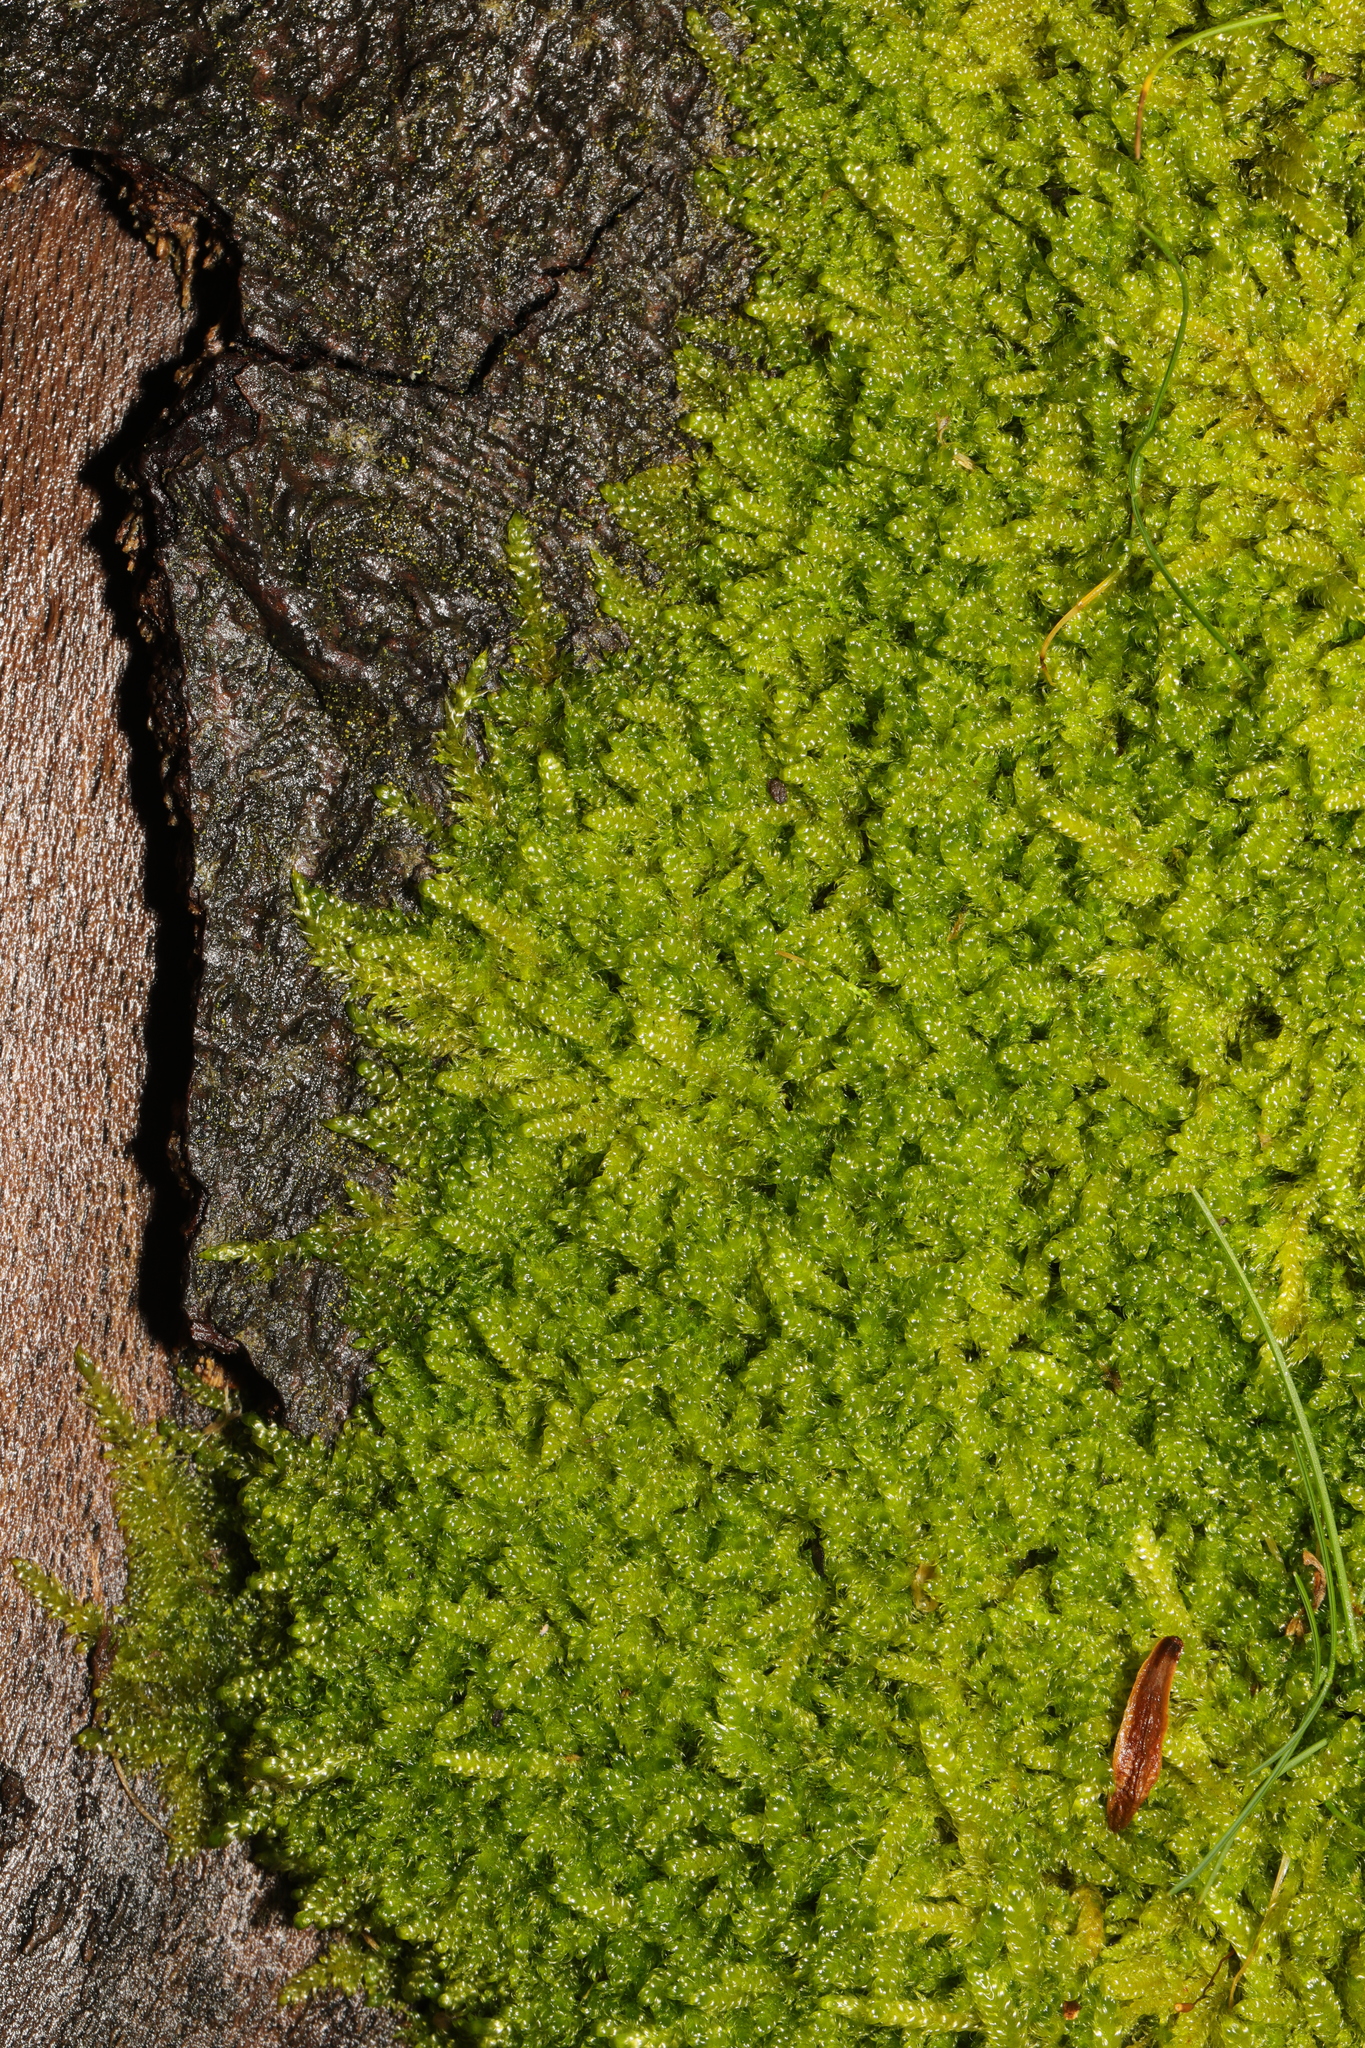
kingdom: Plantae
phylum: Bryophyta
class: Bryopsida
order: Hypnales
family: Hypnaceae
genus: Hypnum
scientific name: Hypnum cupressiforme
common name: Cypress-leaved plait-moss
